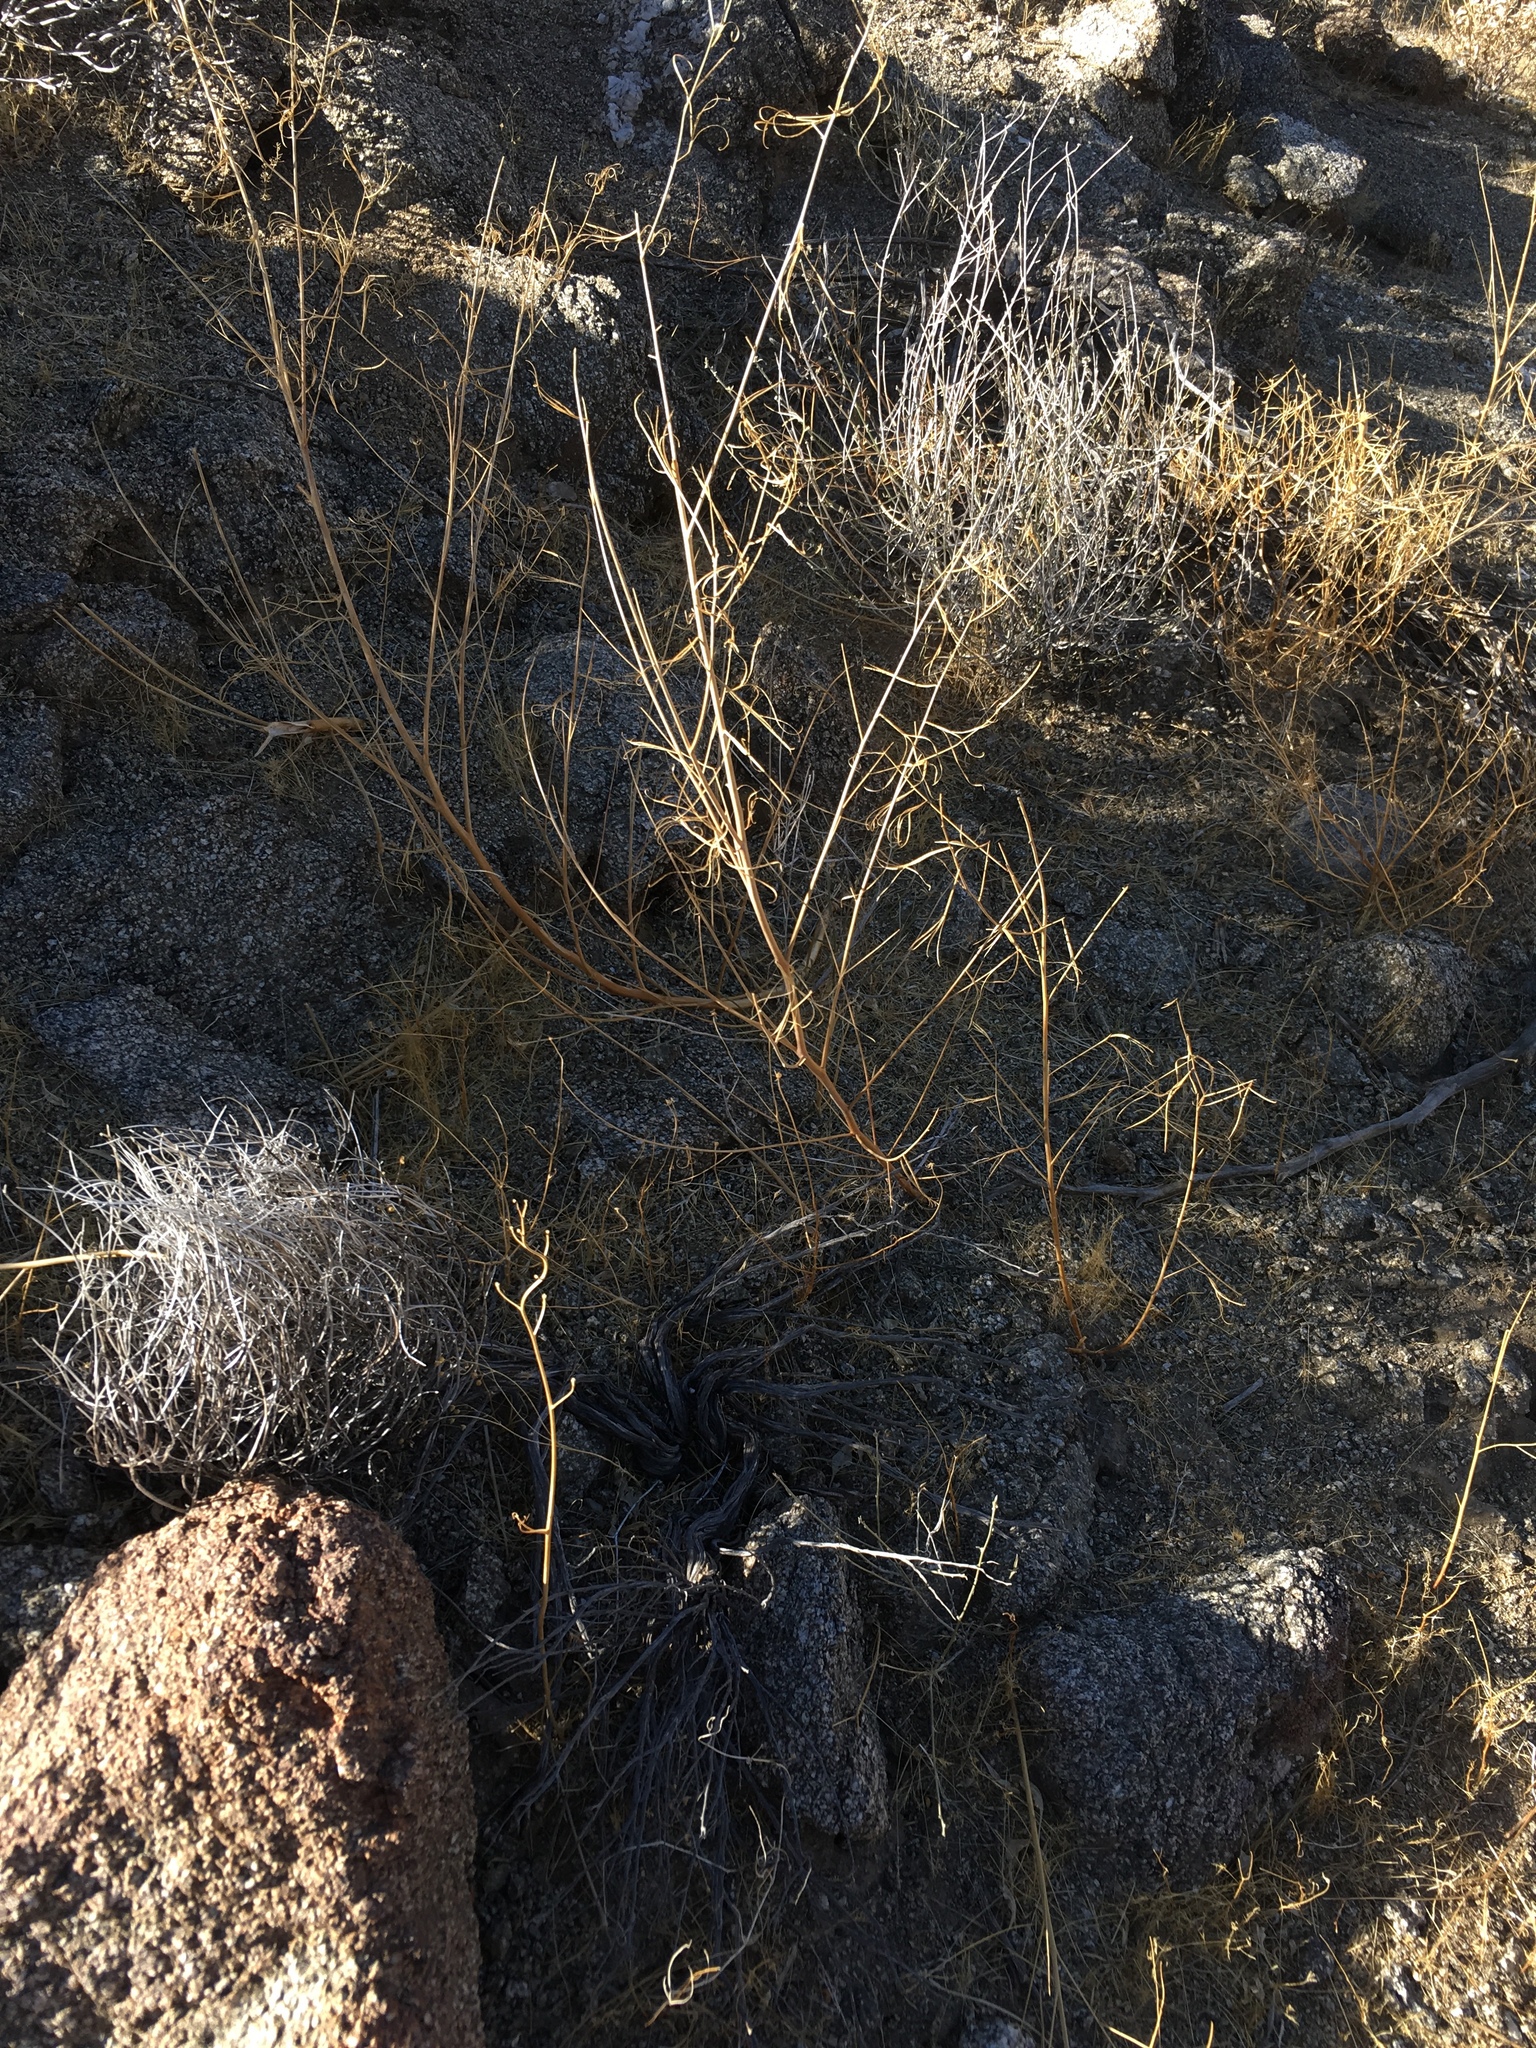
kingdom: Plantae
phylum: Tracheophyta
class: Magnoliopsida
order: Myrtales
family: Onagraceae
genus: Eulobus
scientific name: Eulobus californicus
